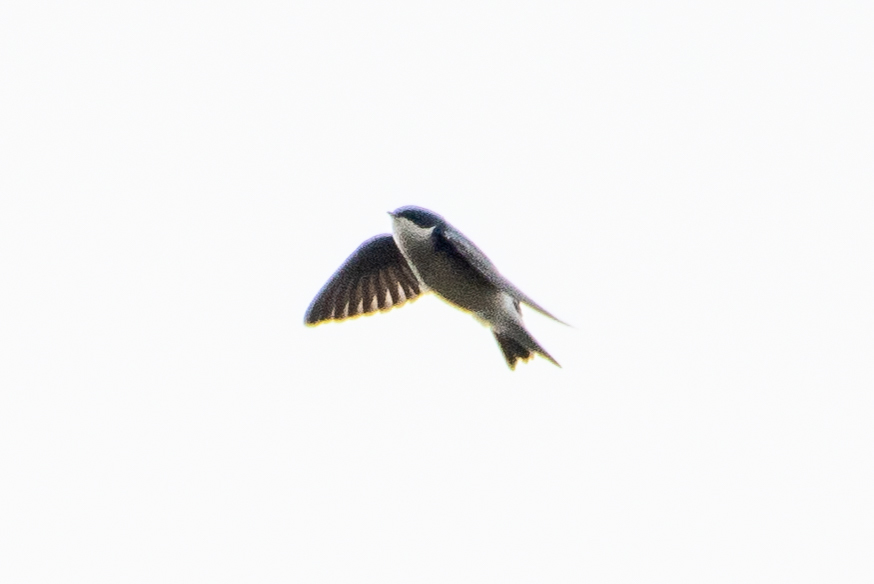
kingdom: Animalia
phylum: Chordata
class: Aves
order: Passeriformes
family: Hirundinidae
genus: Tachycineta
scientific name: Tachycineta bicolor
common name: Tree swallow
